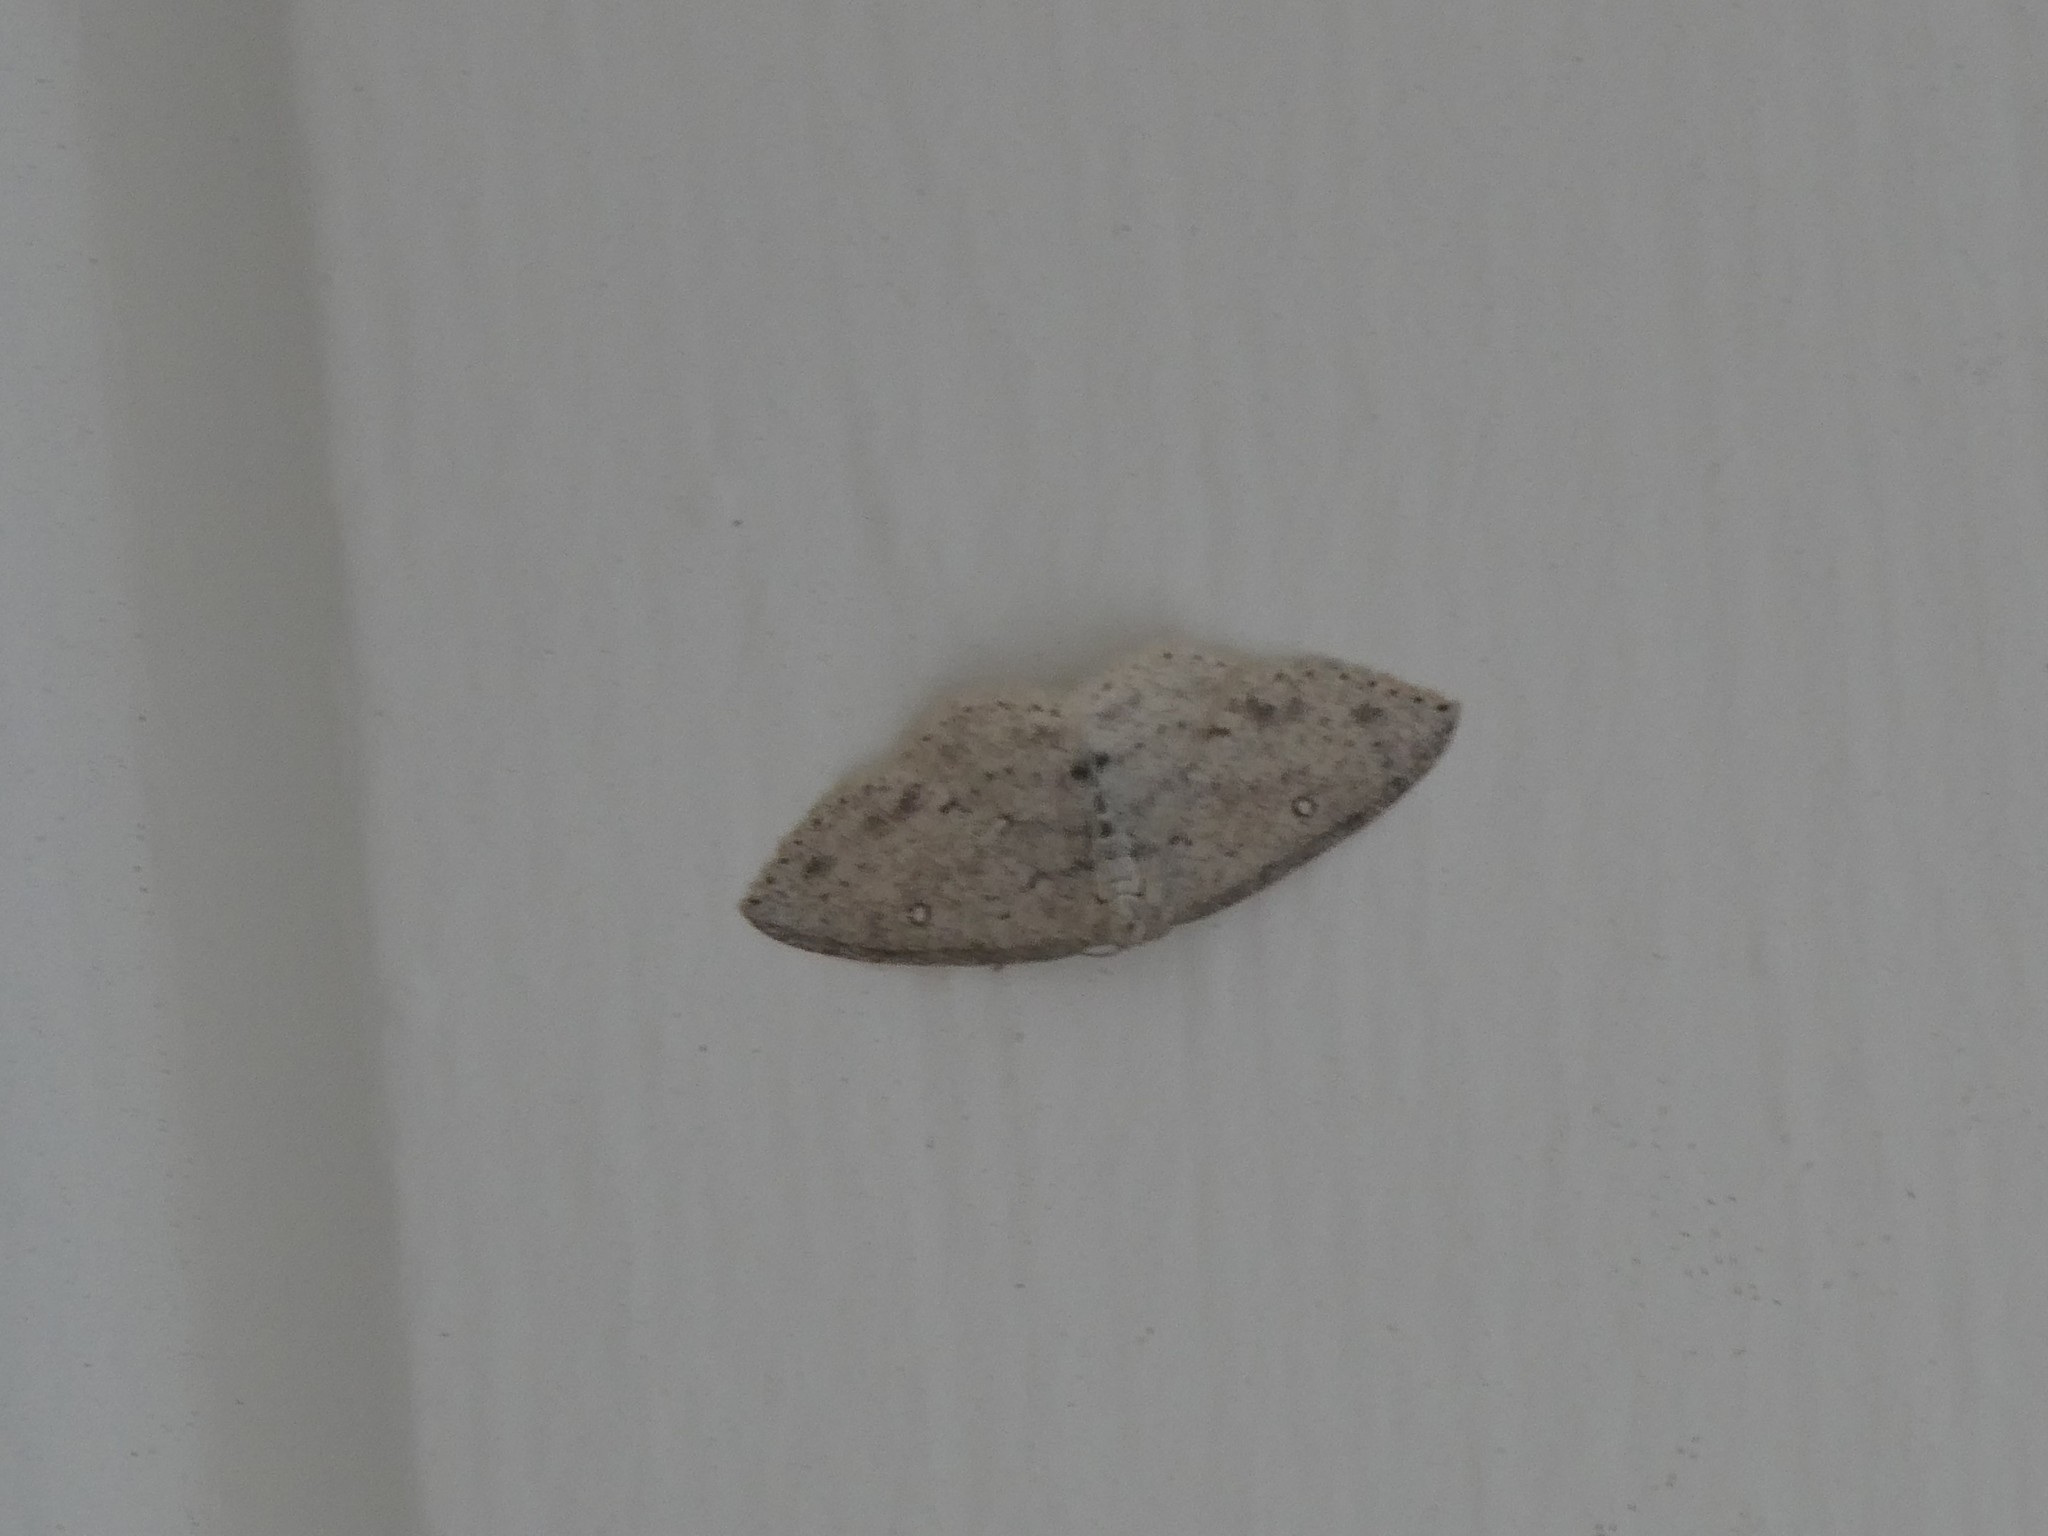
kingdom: Animalia
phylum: Arthropoda
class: Insecta
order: Lepidoptera
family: Geometridae
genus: Cyclophora
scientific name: Cyclophora pendulinaria
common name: Sweet fern geometer
